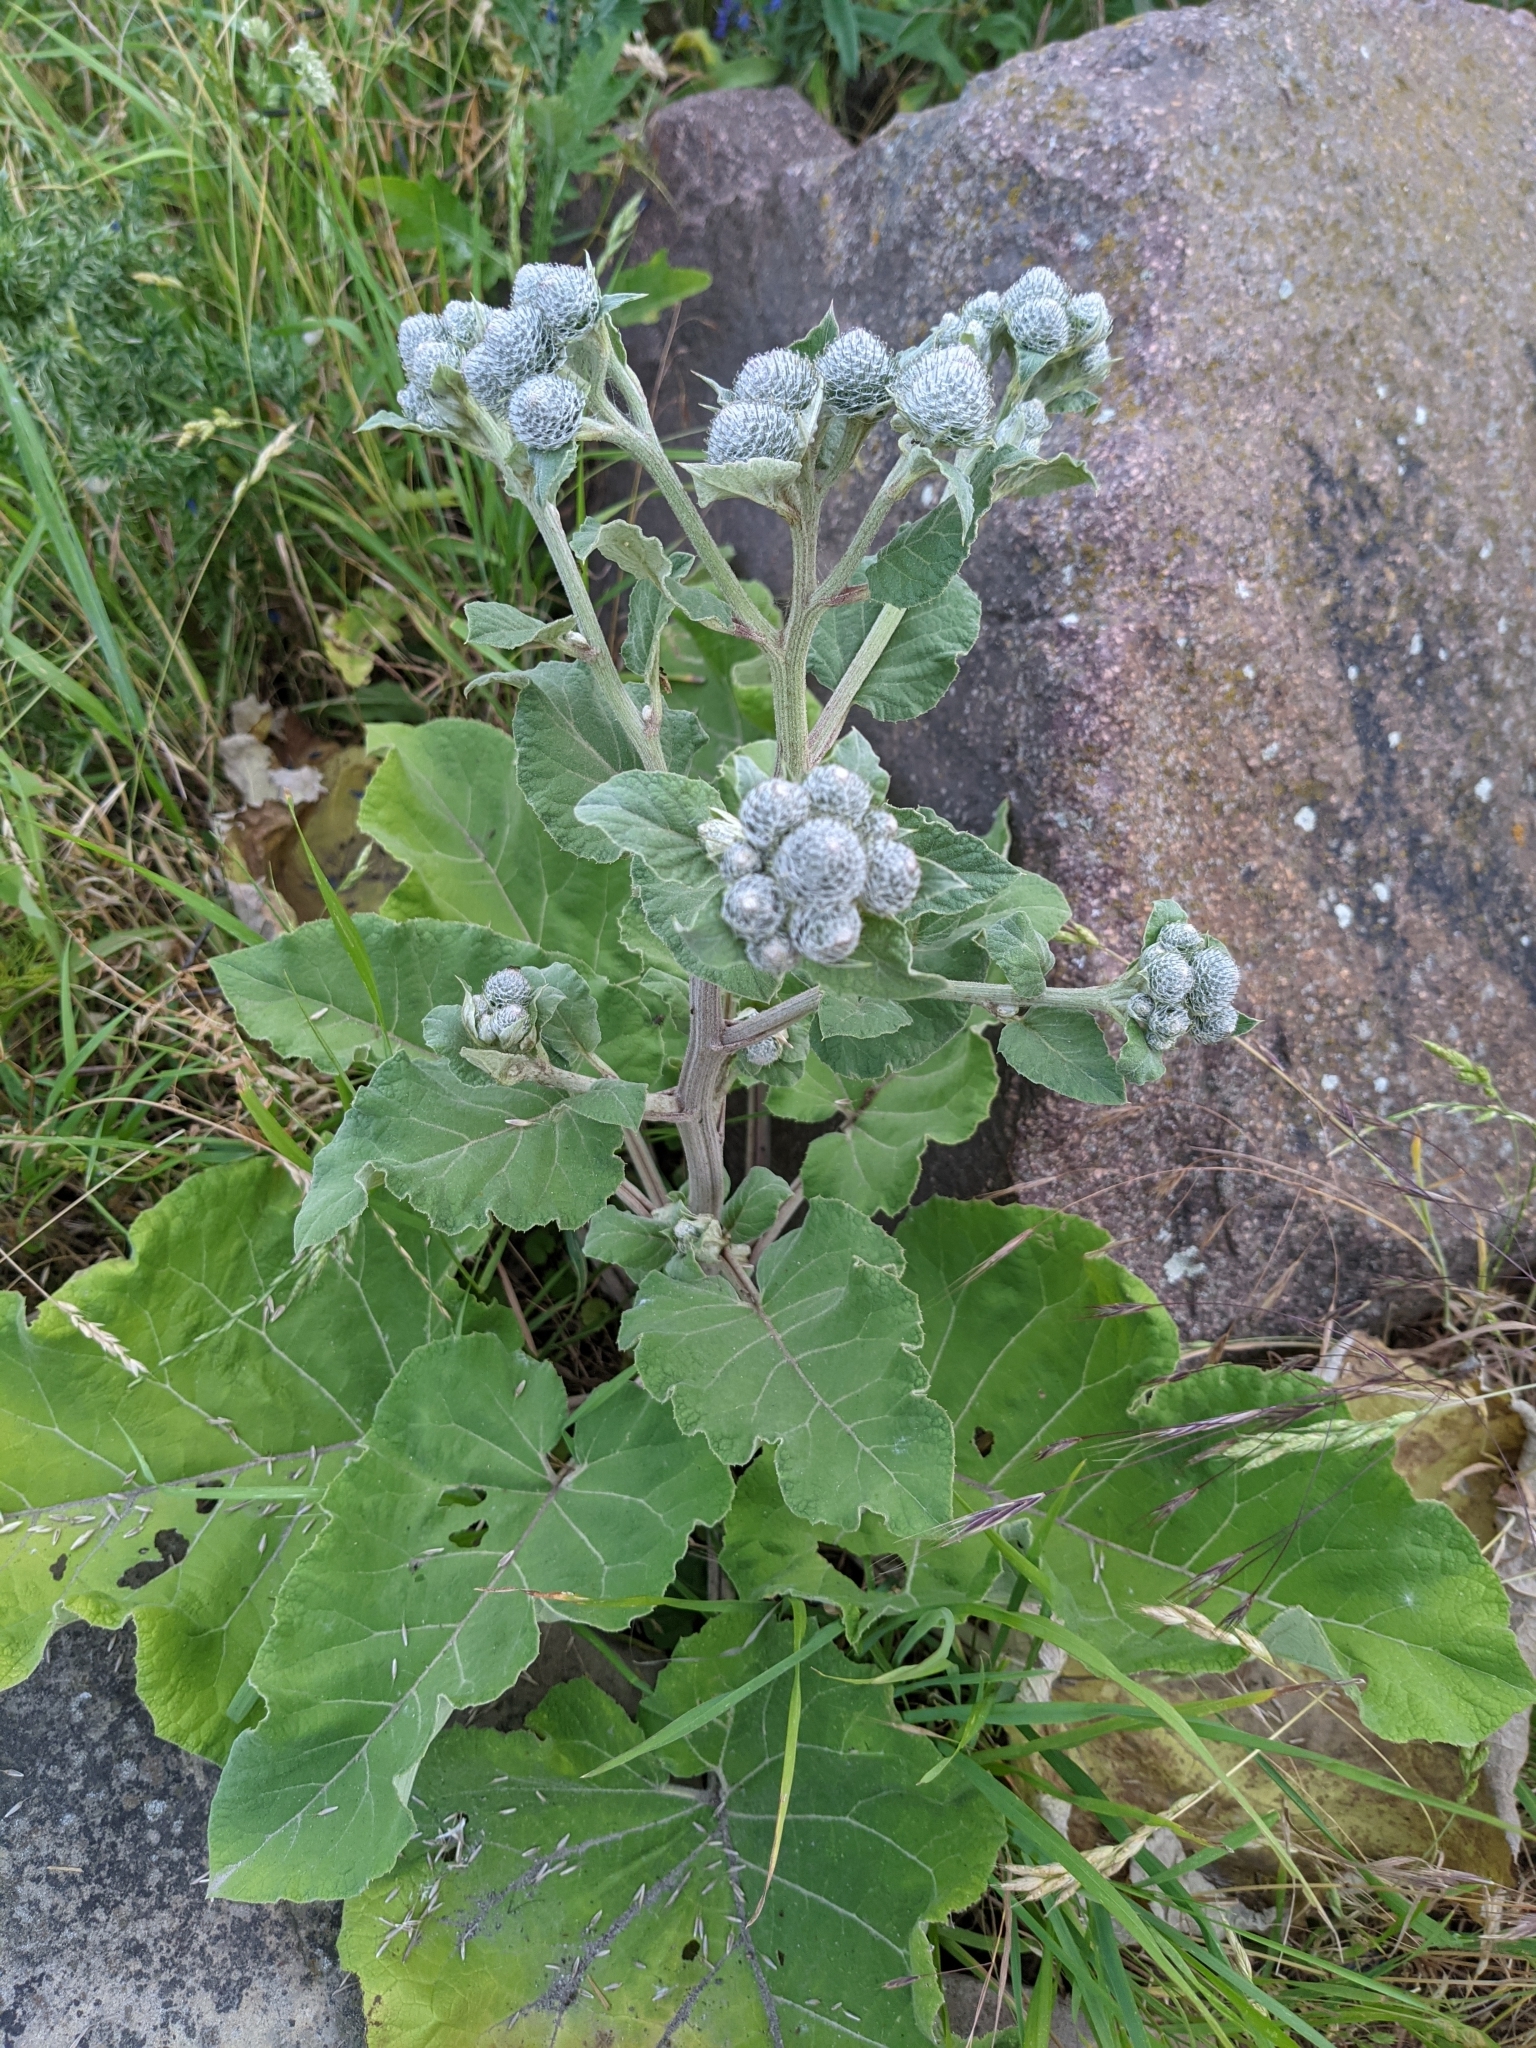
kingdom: Plantae
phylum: Tracheophyta
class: Magnoliopsida
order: Asterales
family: Asteraceae
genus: Arctium
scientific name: Arctium tomentosum
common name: Woolly burdock
